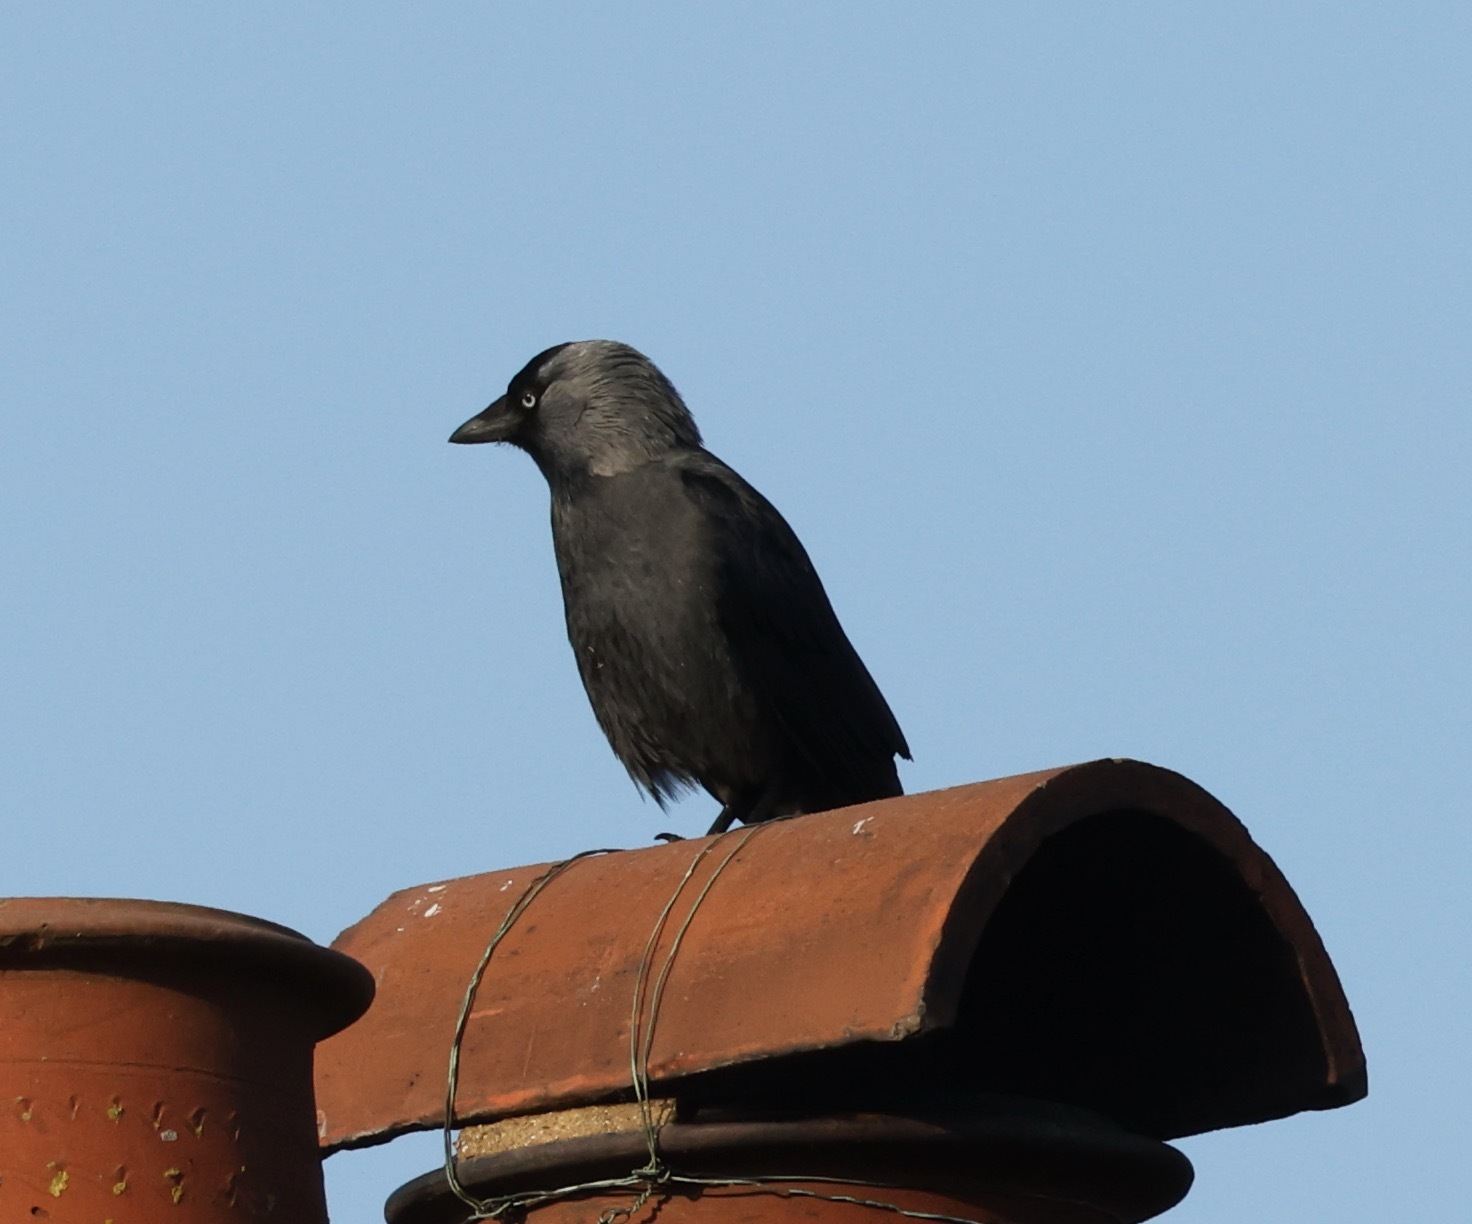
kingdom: Animalia
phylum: Chordata
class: Aves
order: Passeriformes
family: Corvidae
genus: Coloeus
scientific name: Coloeus monedula
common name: Western jackdaw
